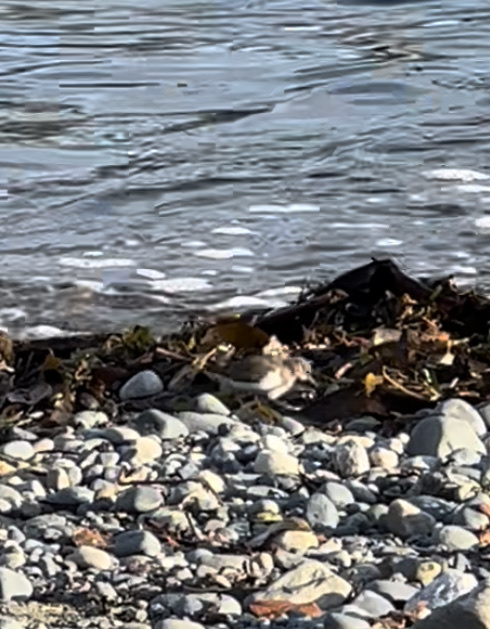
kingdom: Animalia
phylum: Chordata
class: Aves
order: Charadriiformes
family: Scolopacidae
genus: Actitis
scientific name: Actitis macularius
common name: Spotted sandpiper
